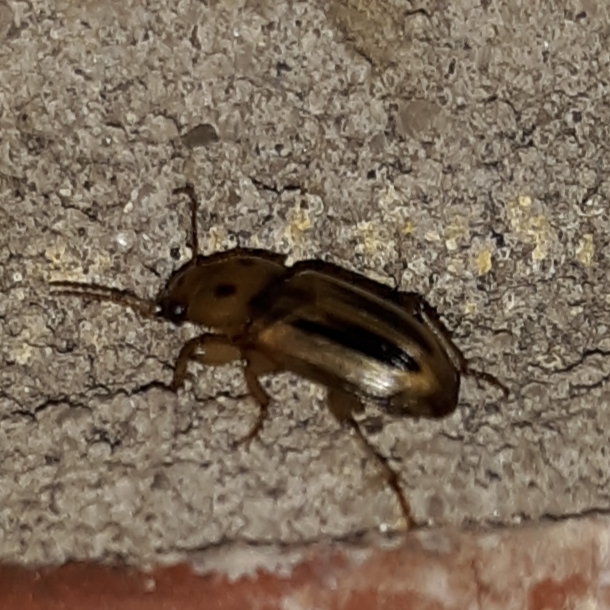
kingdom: Animalia
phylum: Arthropoda
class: Insecta
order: Coleoptera
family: Carabidae
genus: Stenolophus
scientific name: Stenolophus lineola
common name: Lined stenolophus
